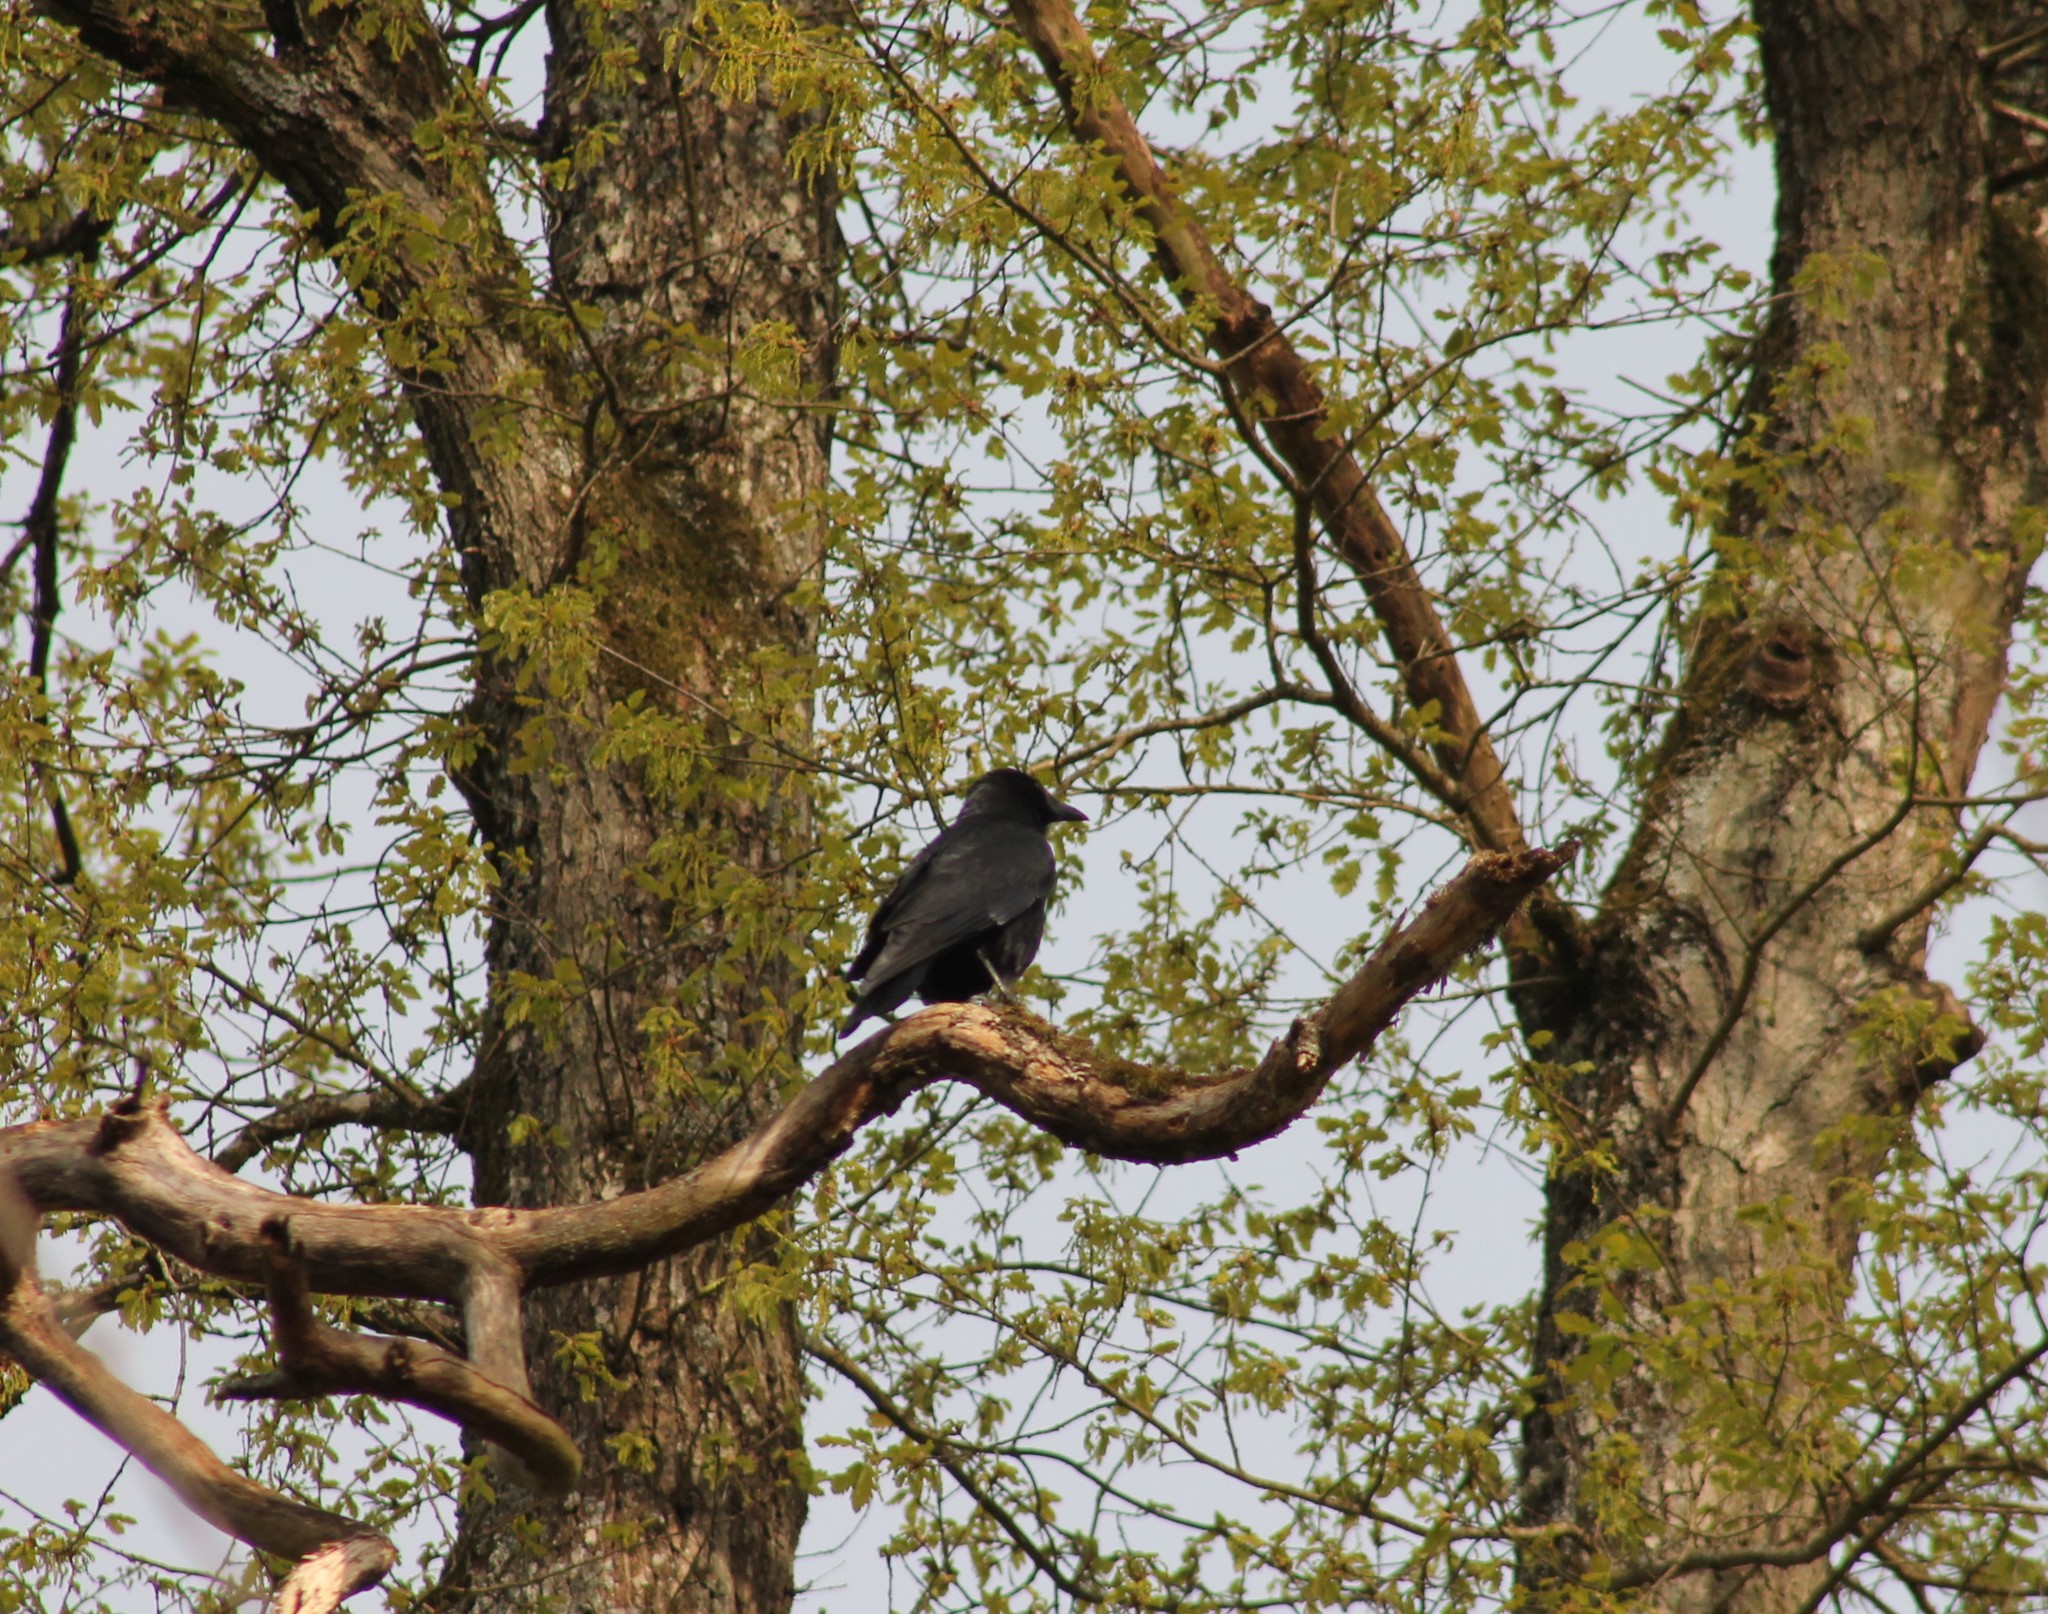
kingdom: Animalia
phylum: Chordata
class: Aves
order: Passeriformes
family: Corvidae
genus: Corvus
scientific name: Corvus corone
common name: Carrion crow
